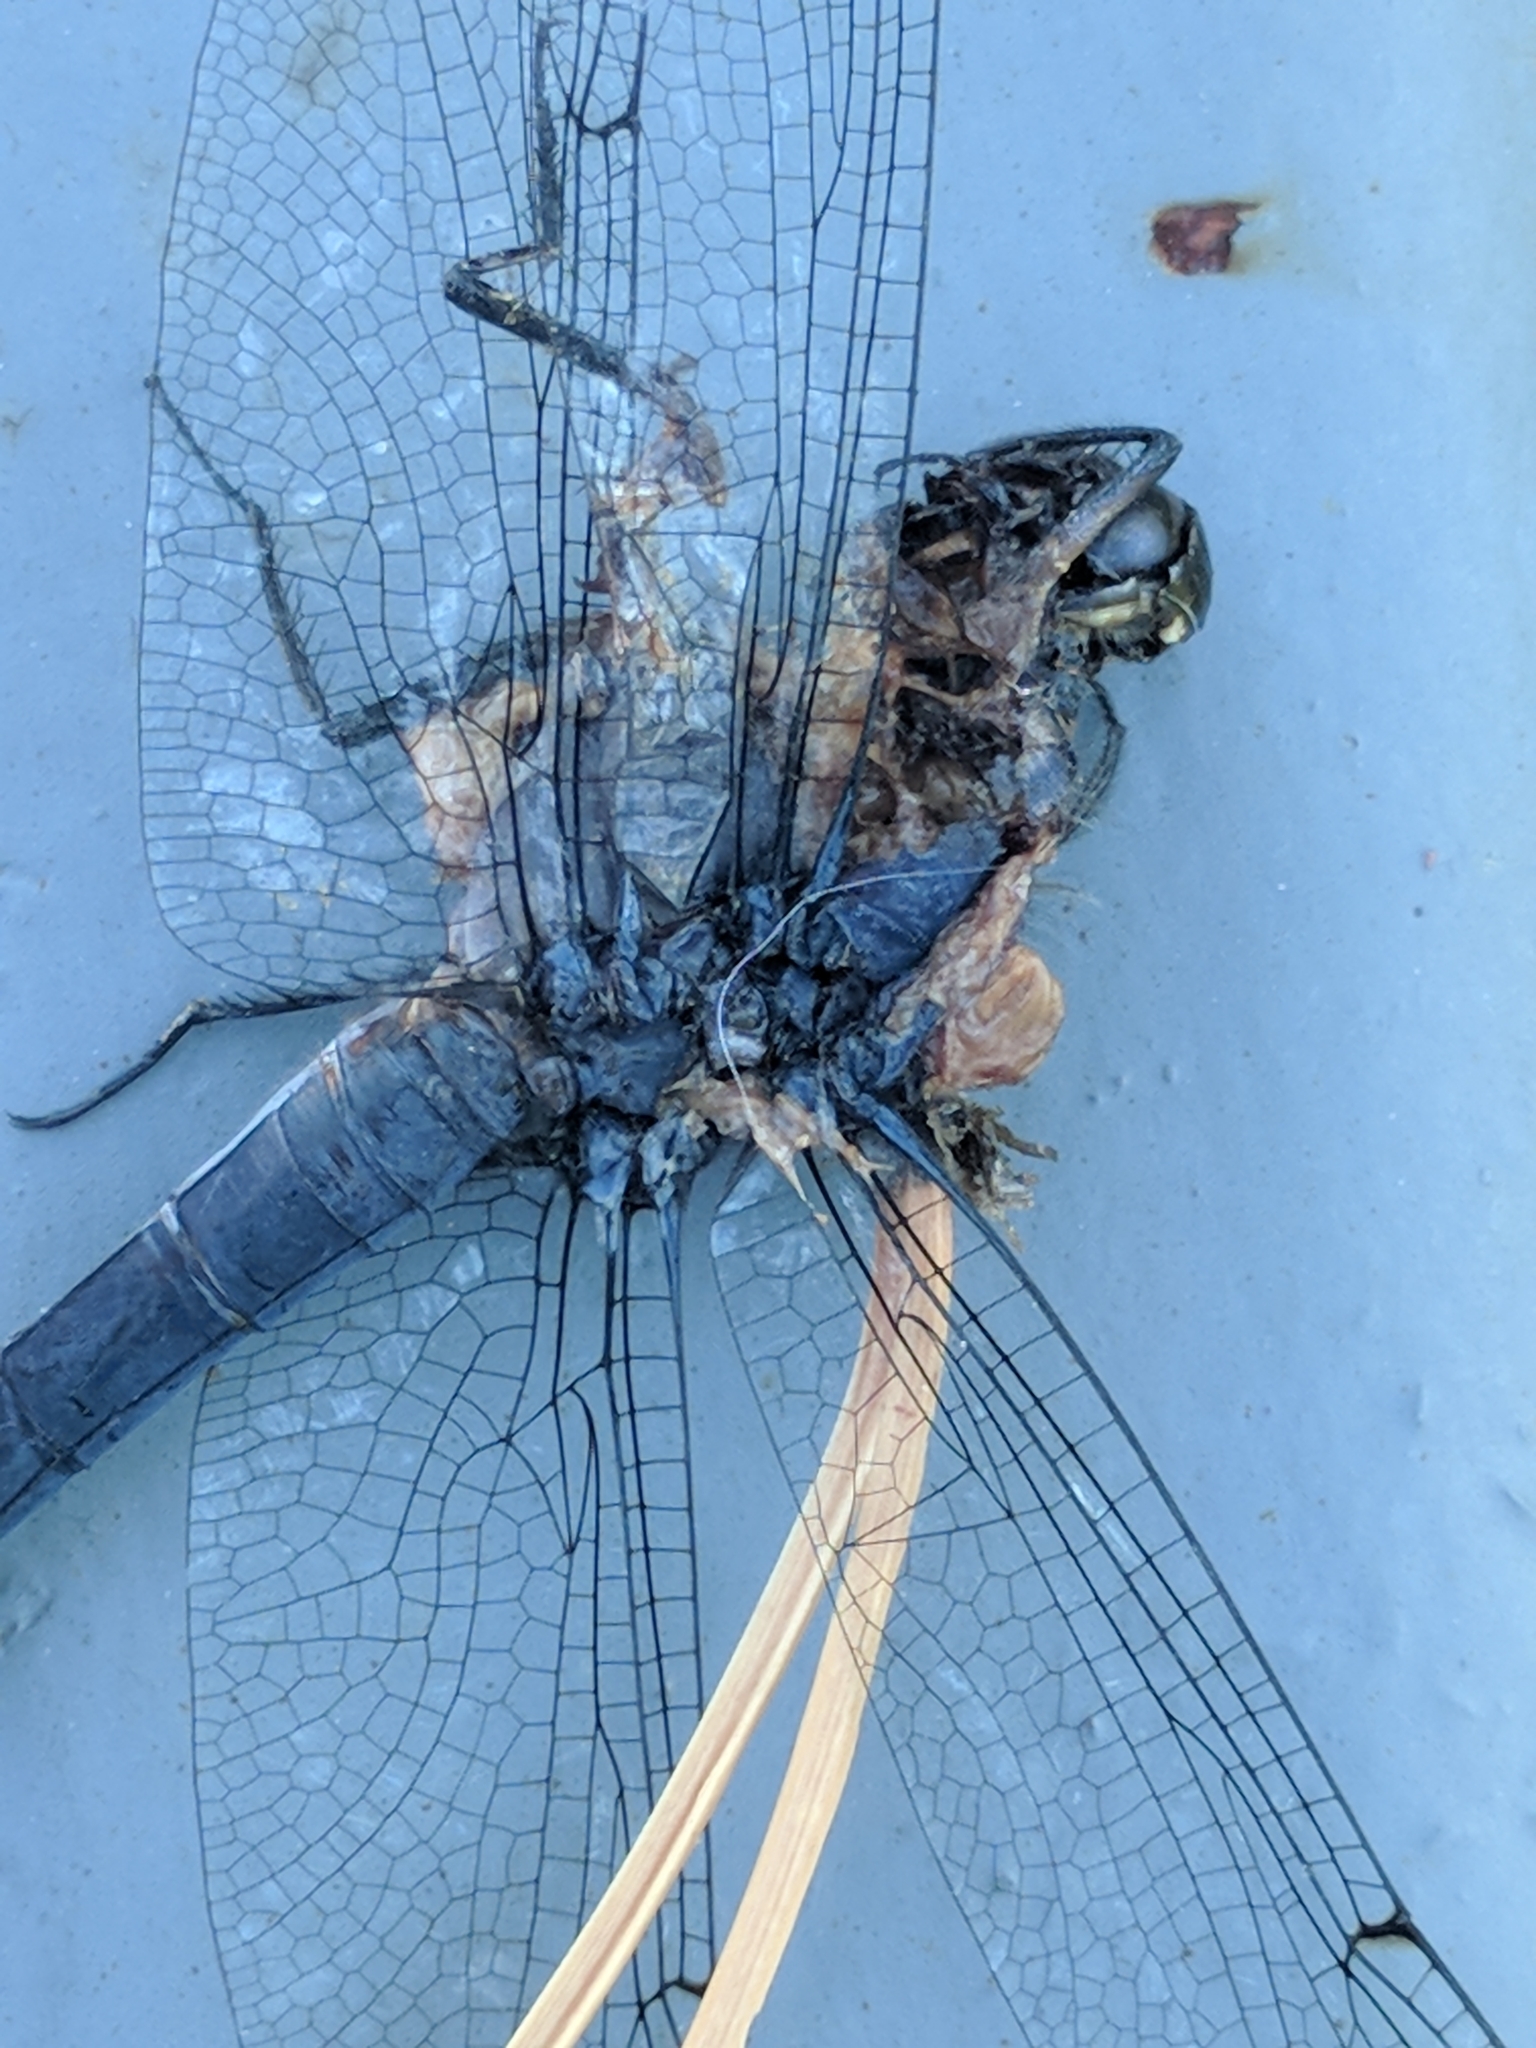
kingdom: Animalia
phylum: Arthropoda
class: Insecta
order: Odonata
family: Libellulidae
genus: Libellula
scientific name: Libellula incesta
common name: Slaty skimmer
